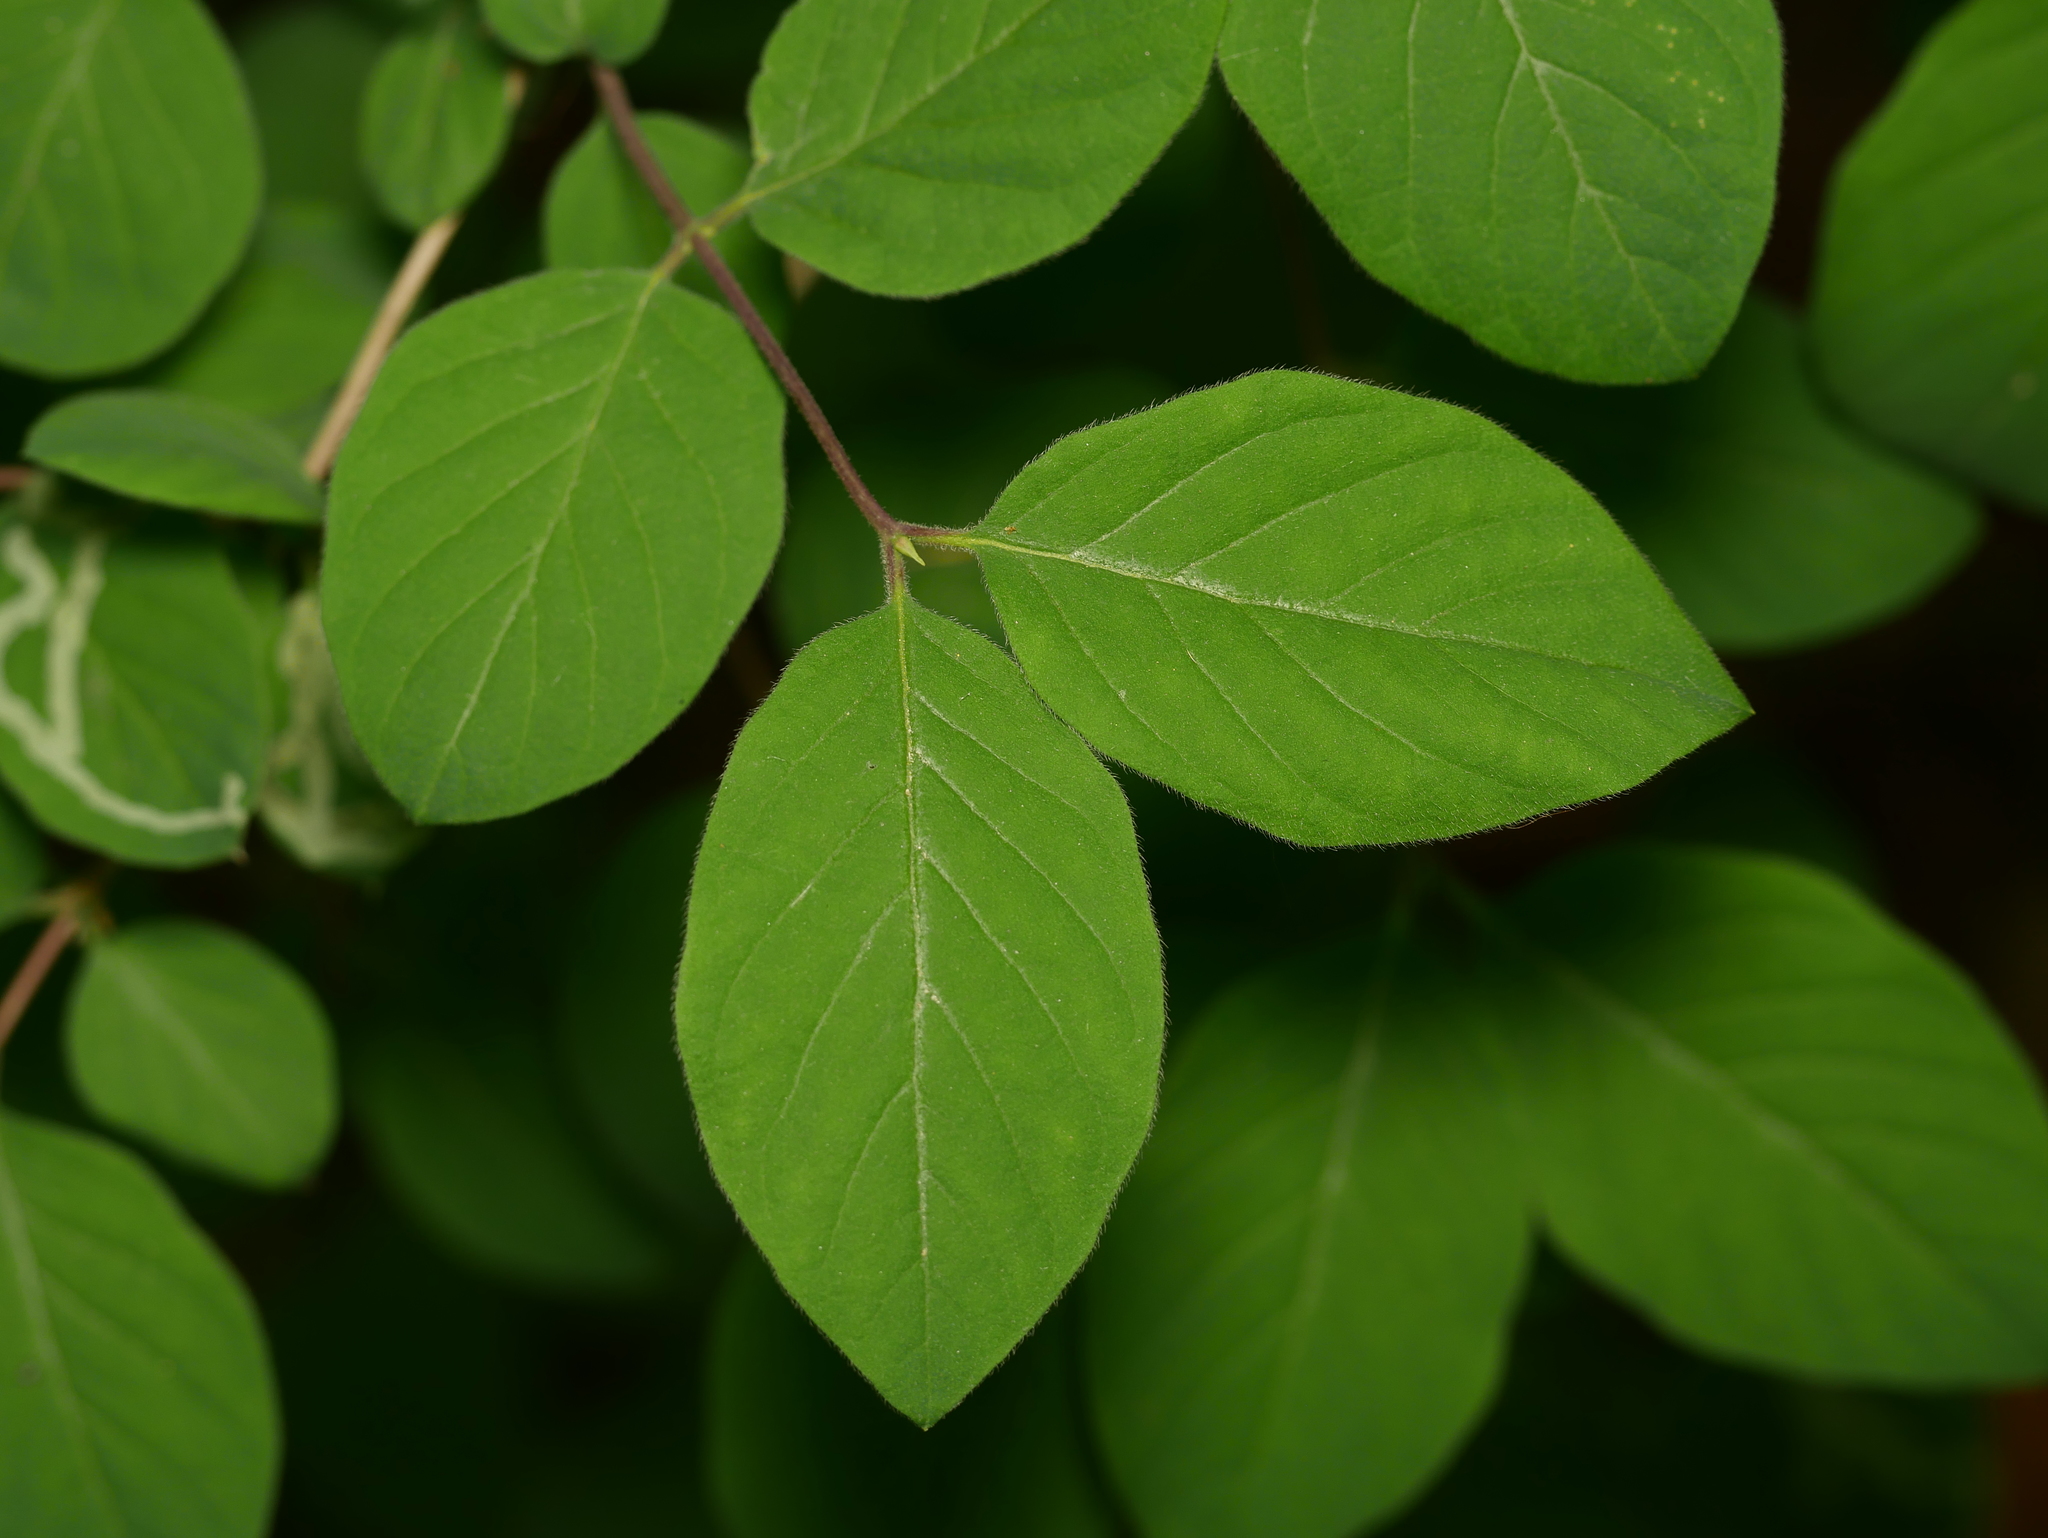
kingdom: Plantae
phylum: Tracheophyta
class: Magnoliopsida
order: Dipsacales
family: Caprifoliaceae
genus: Lonicera
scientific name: Lonicera xylosteum
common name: Fly honeysuckle
